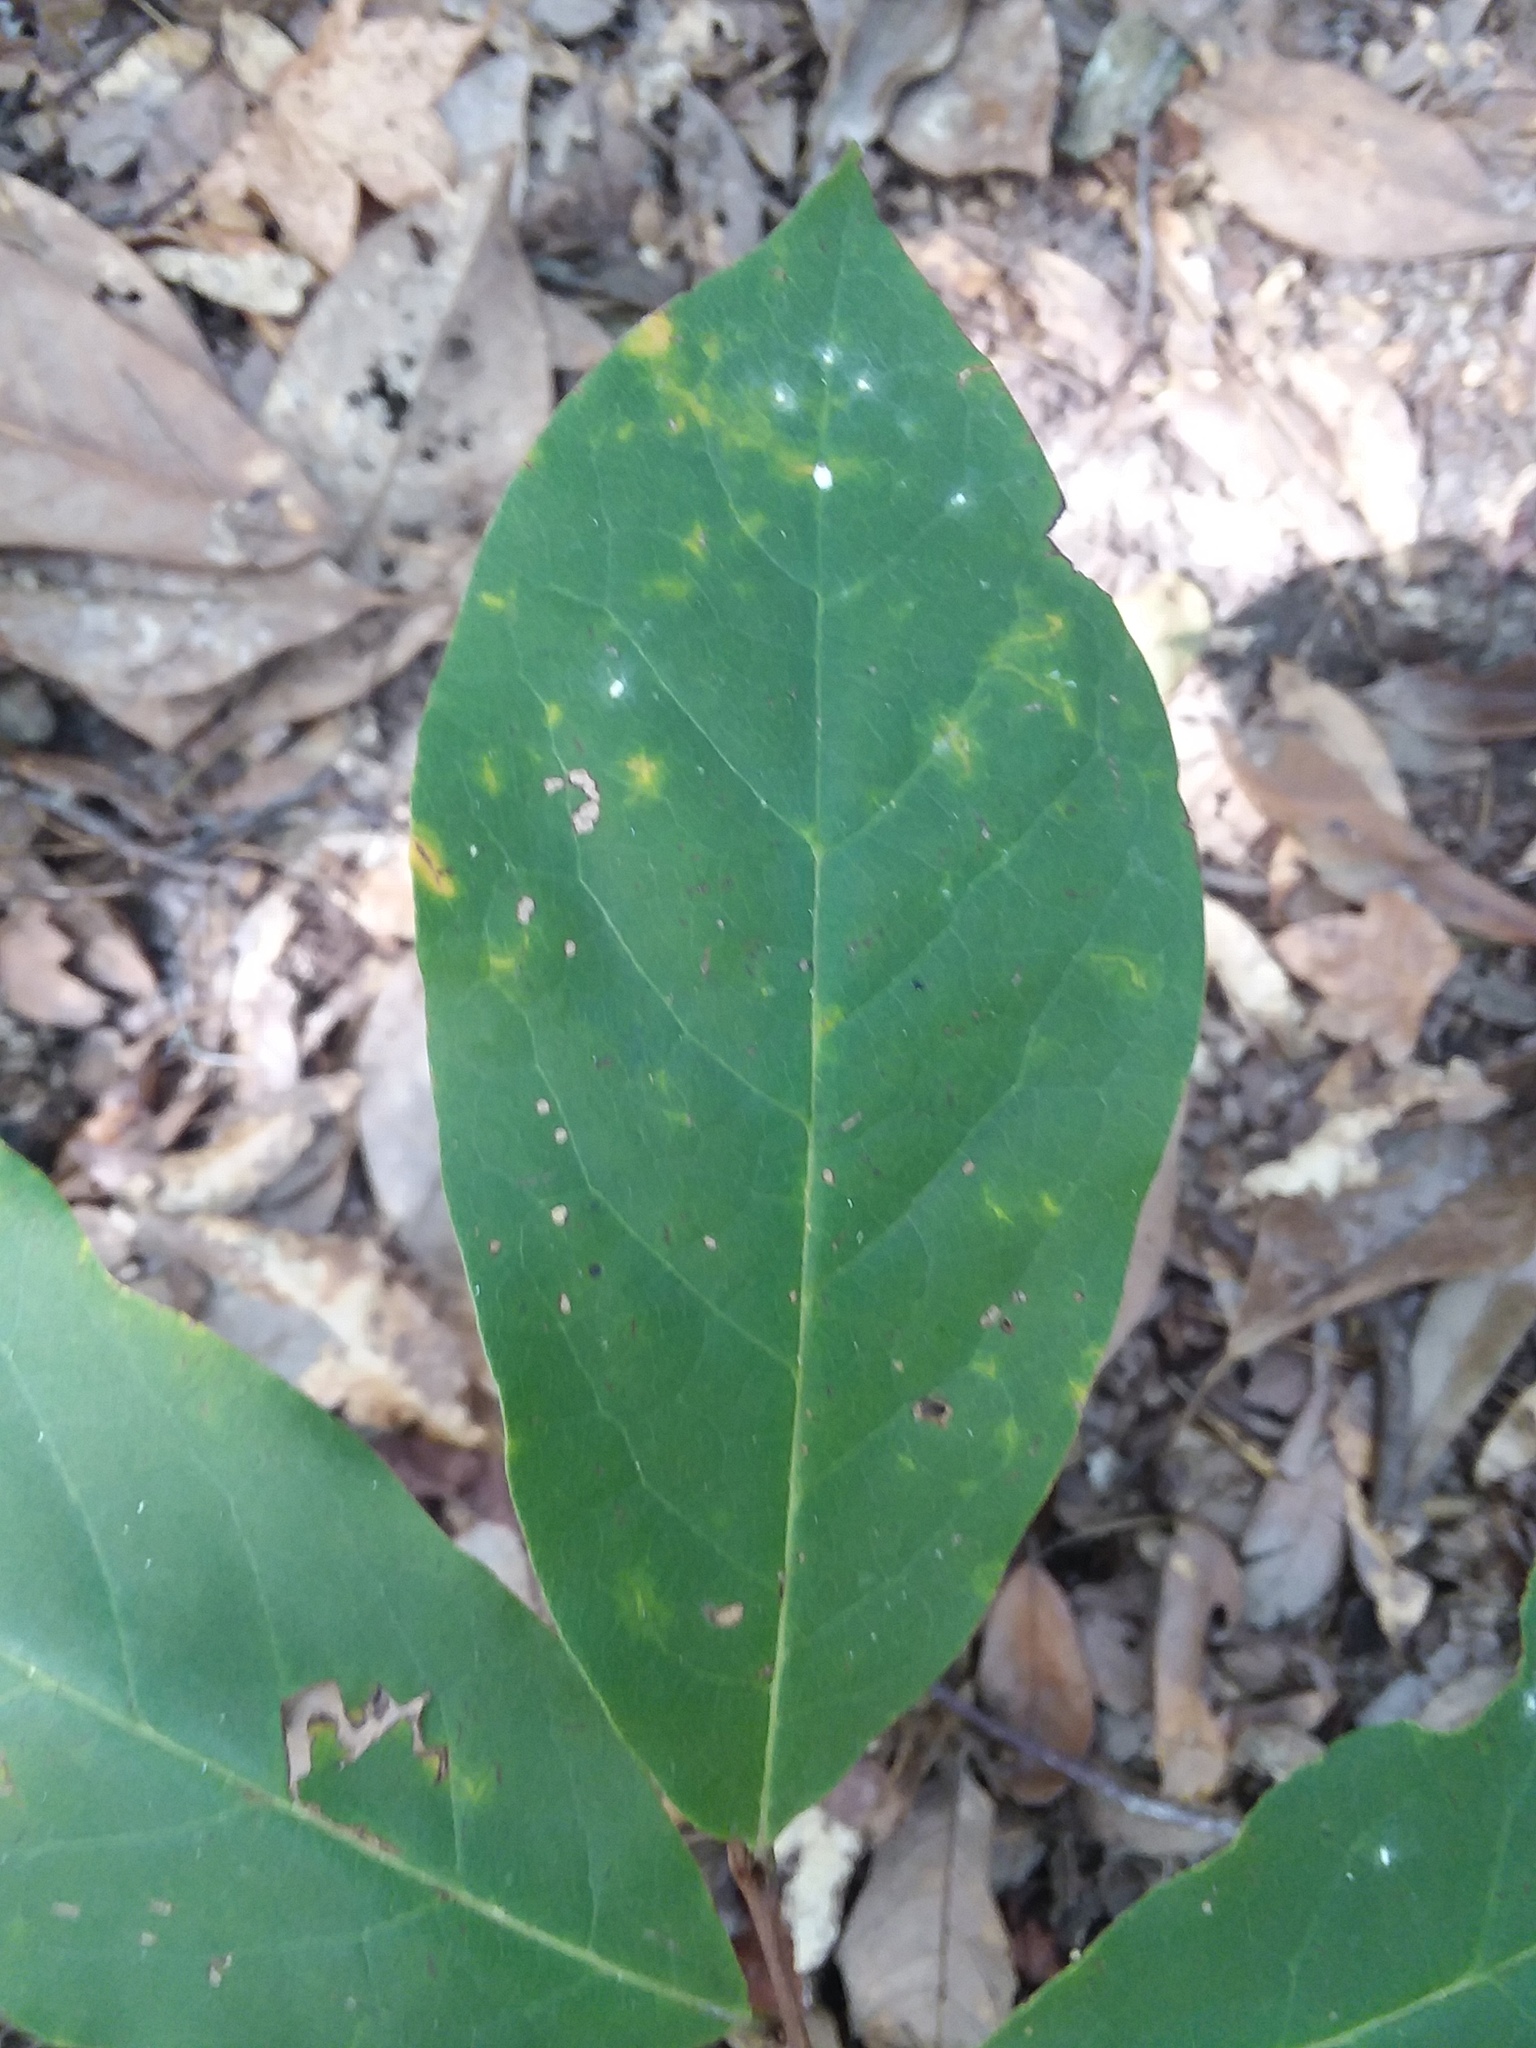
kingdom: Plantae
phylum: Tracheophyta
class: Magnoliopsida
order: Magnoliales
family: Annonaceae
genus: Asimina
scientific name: Asimina parviflora
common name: Dwarf pawpaw
